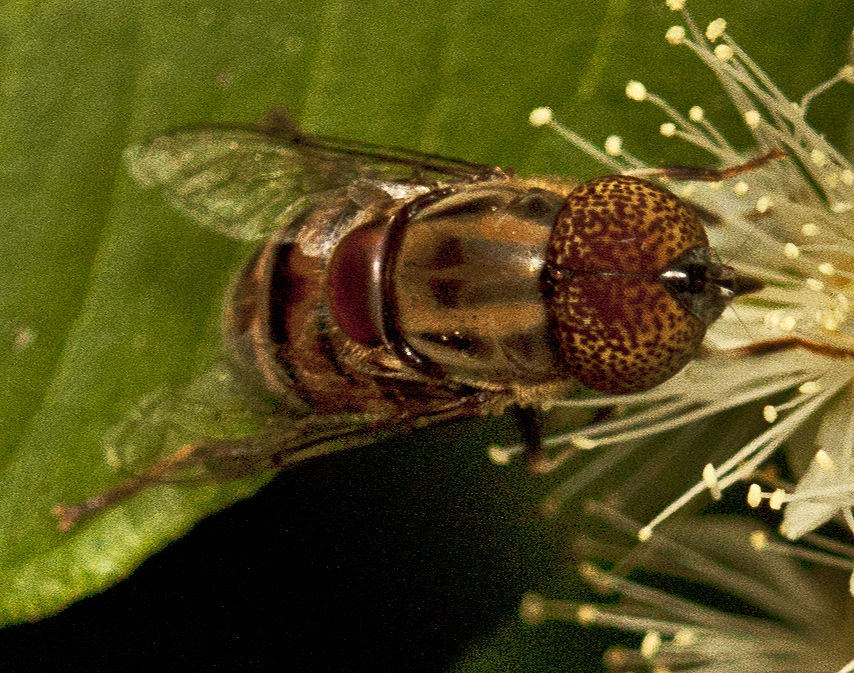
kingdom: Animalia
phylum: Arthropoda
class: Insecta
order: Diptera
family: Syrphidae
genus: Eristalinus
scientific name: Eristalinus punctulatus
